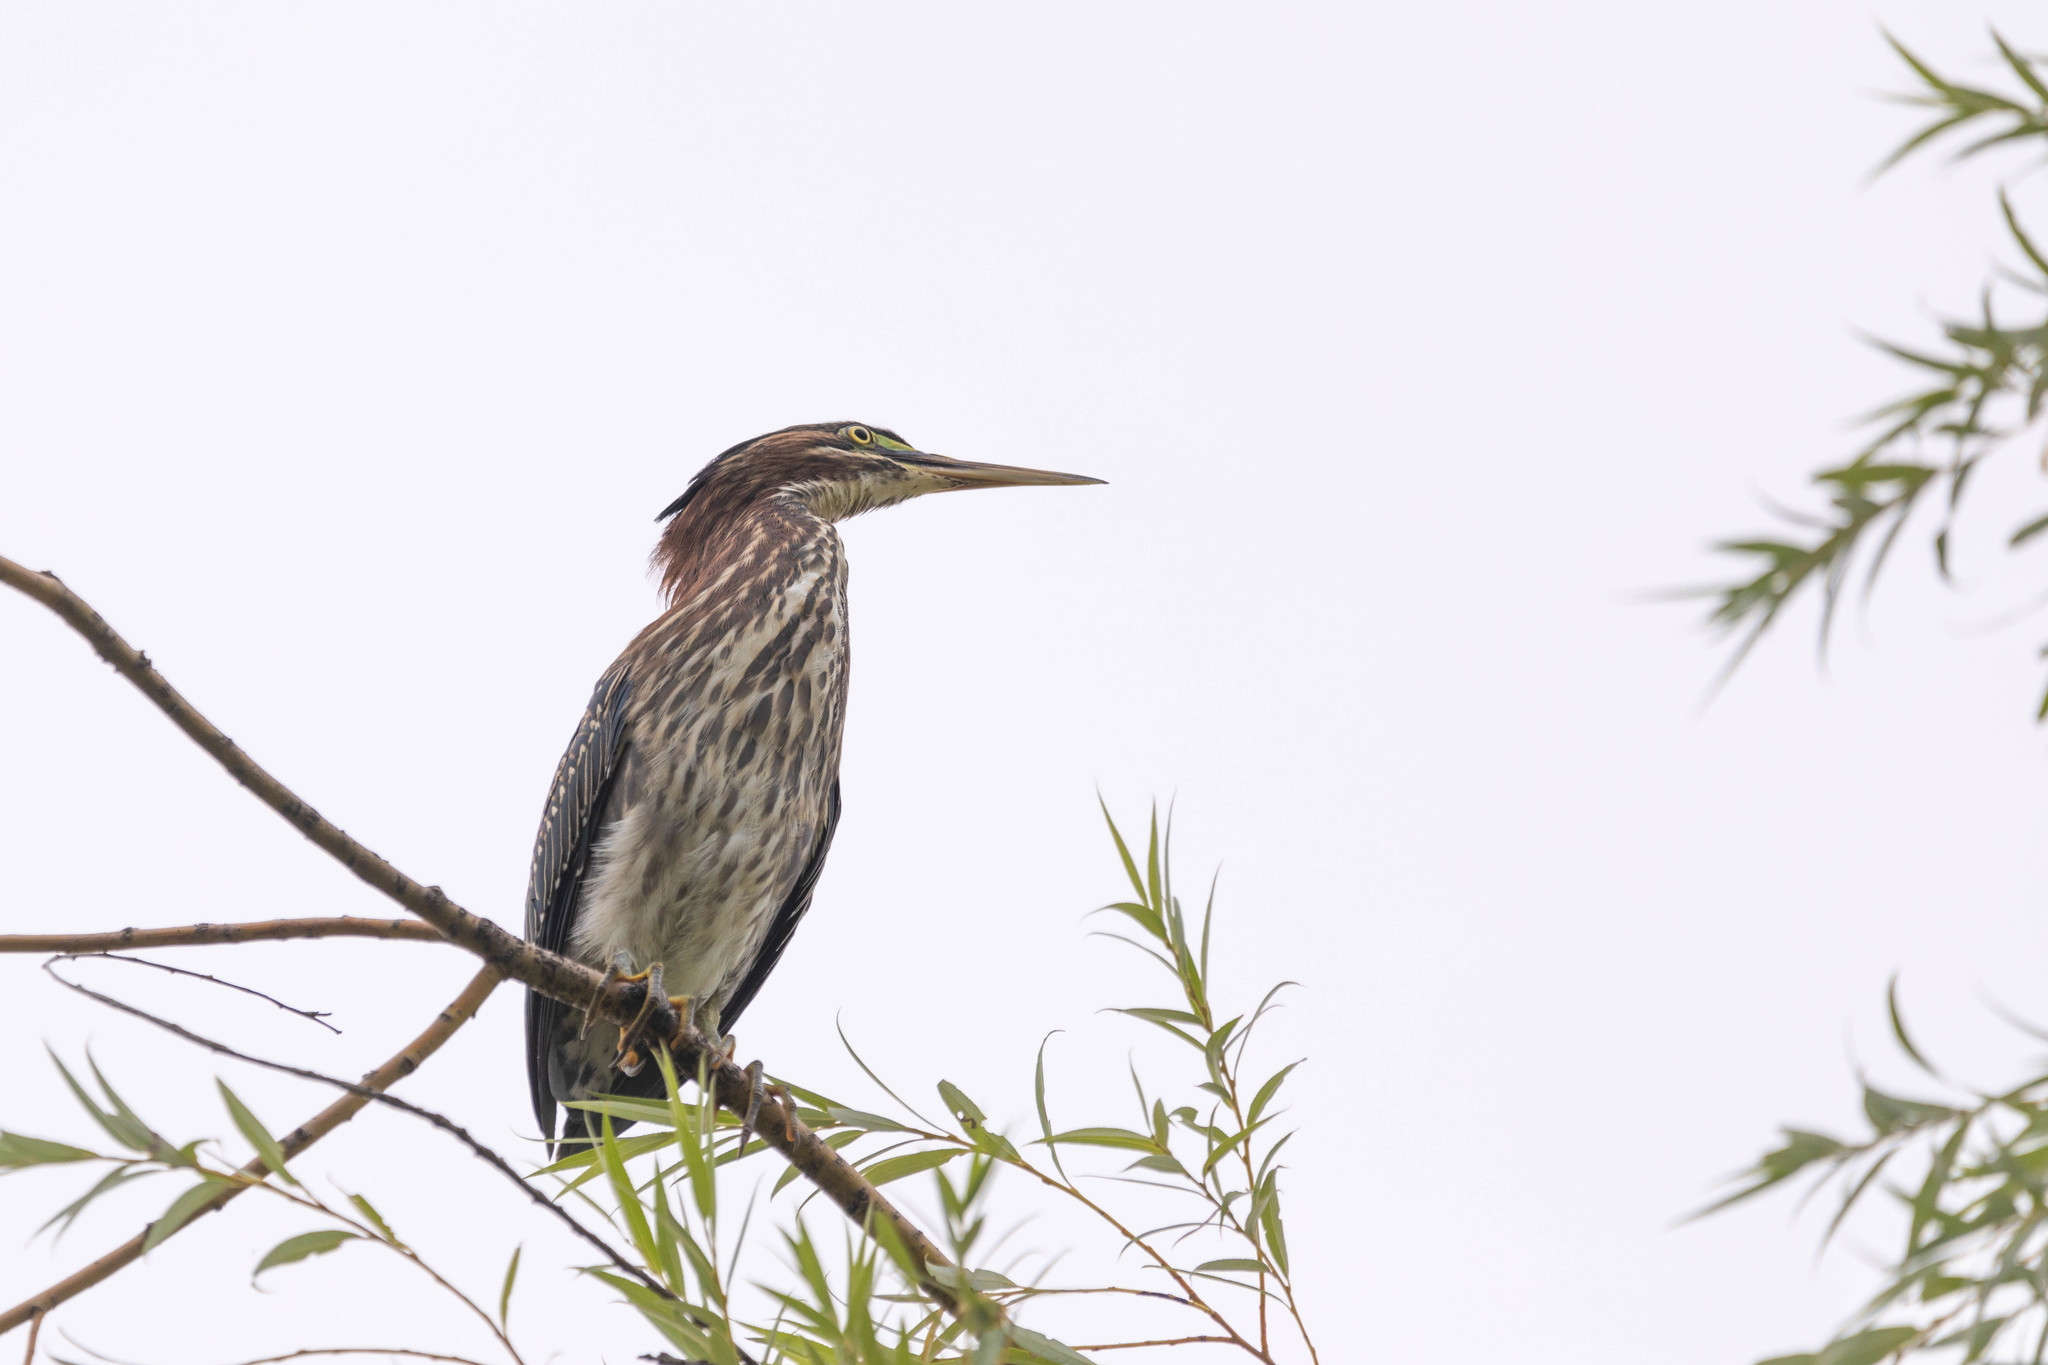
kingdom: Animalia
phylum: Chordata
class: Aves
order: Pelecaniformes
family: Ardeidae
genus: Butorides
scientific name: Butorides virescens
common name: Green heron
